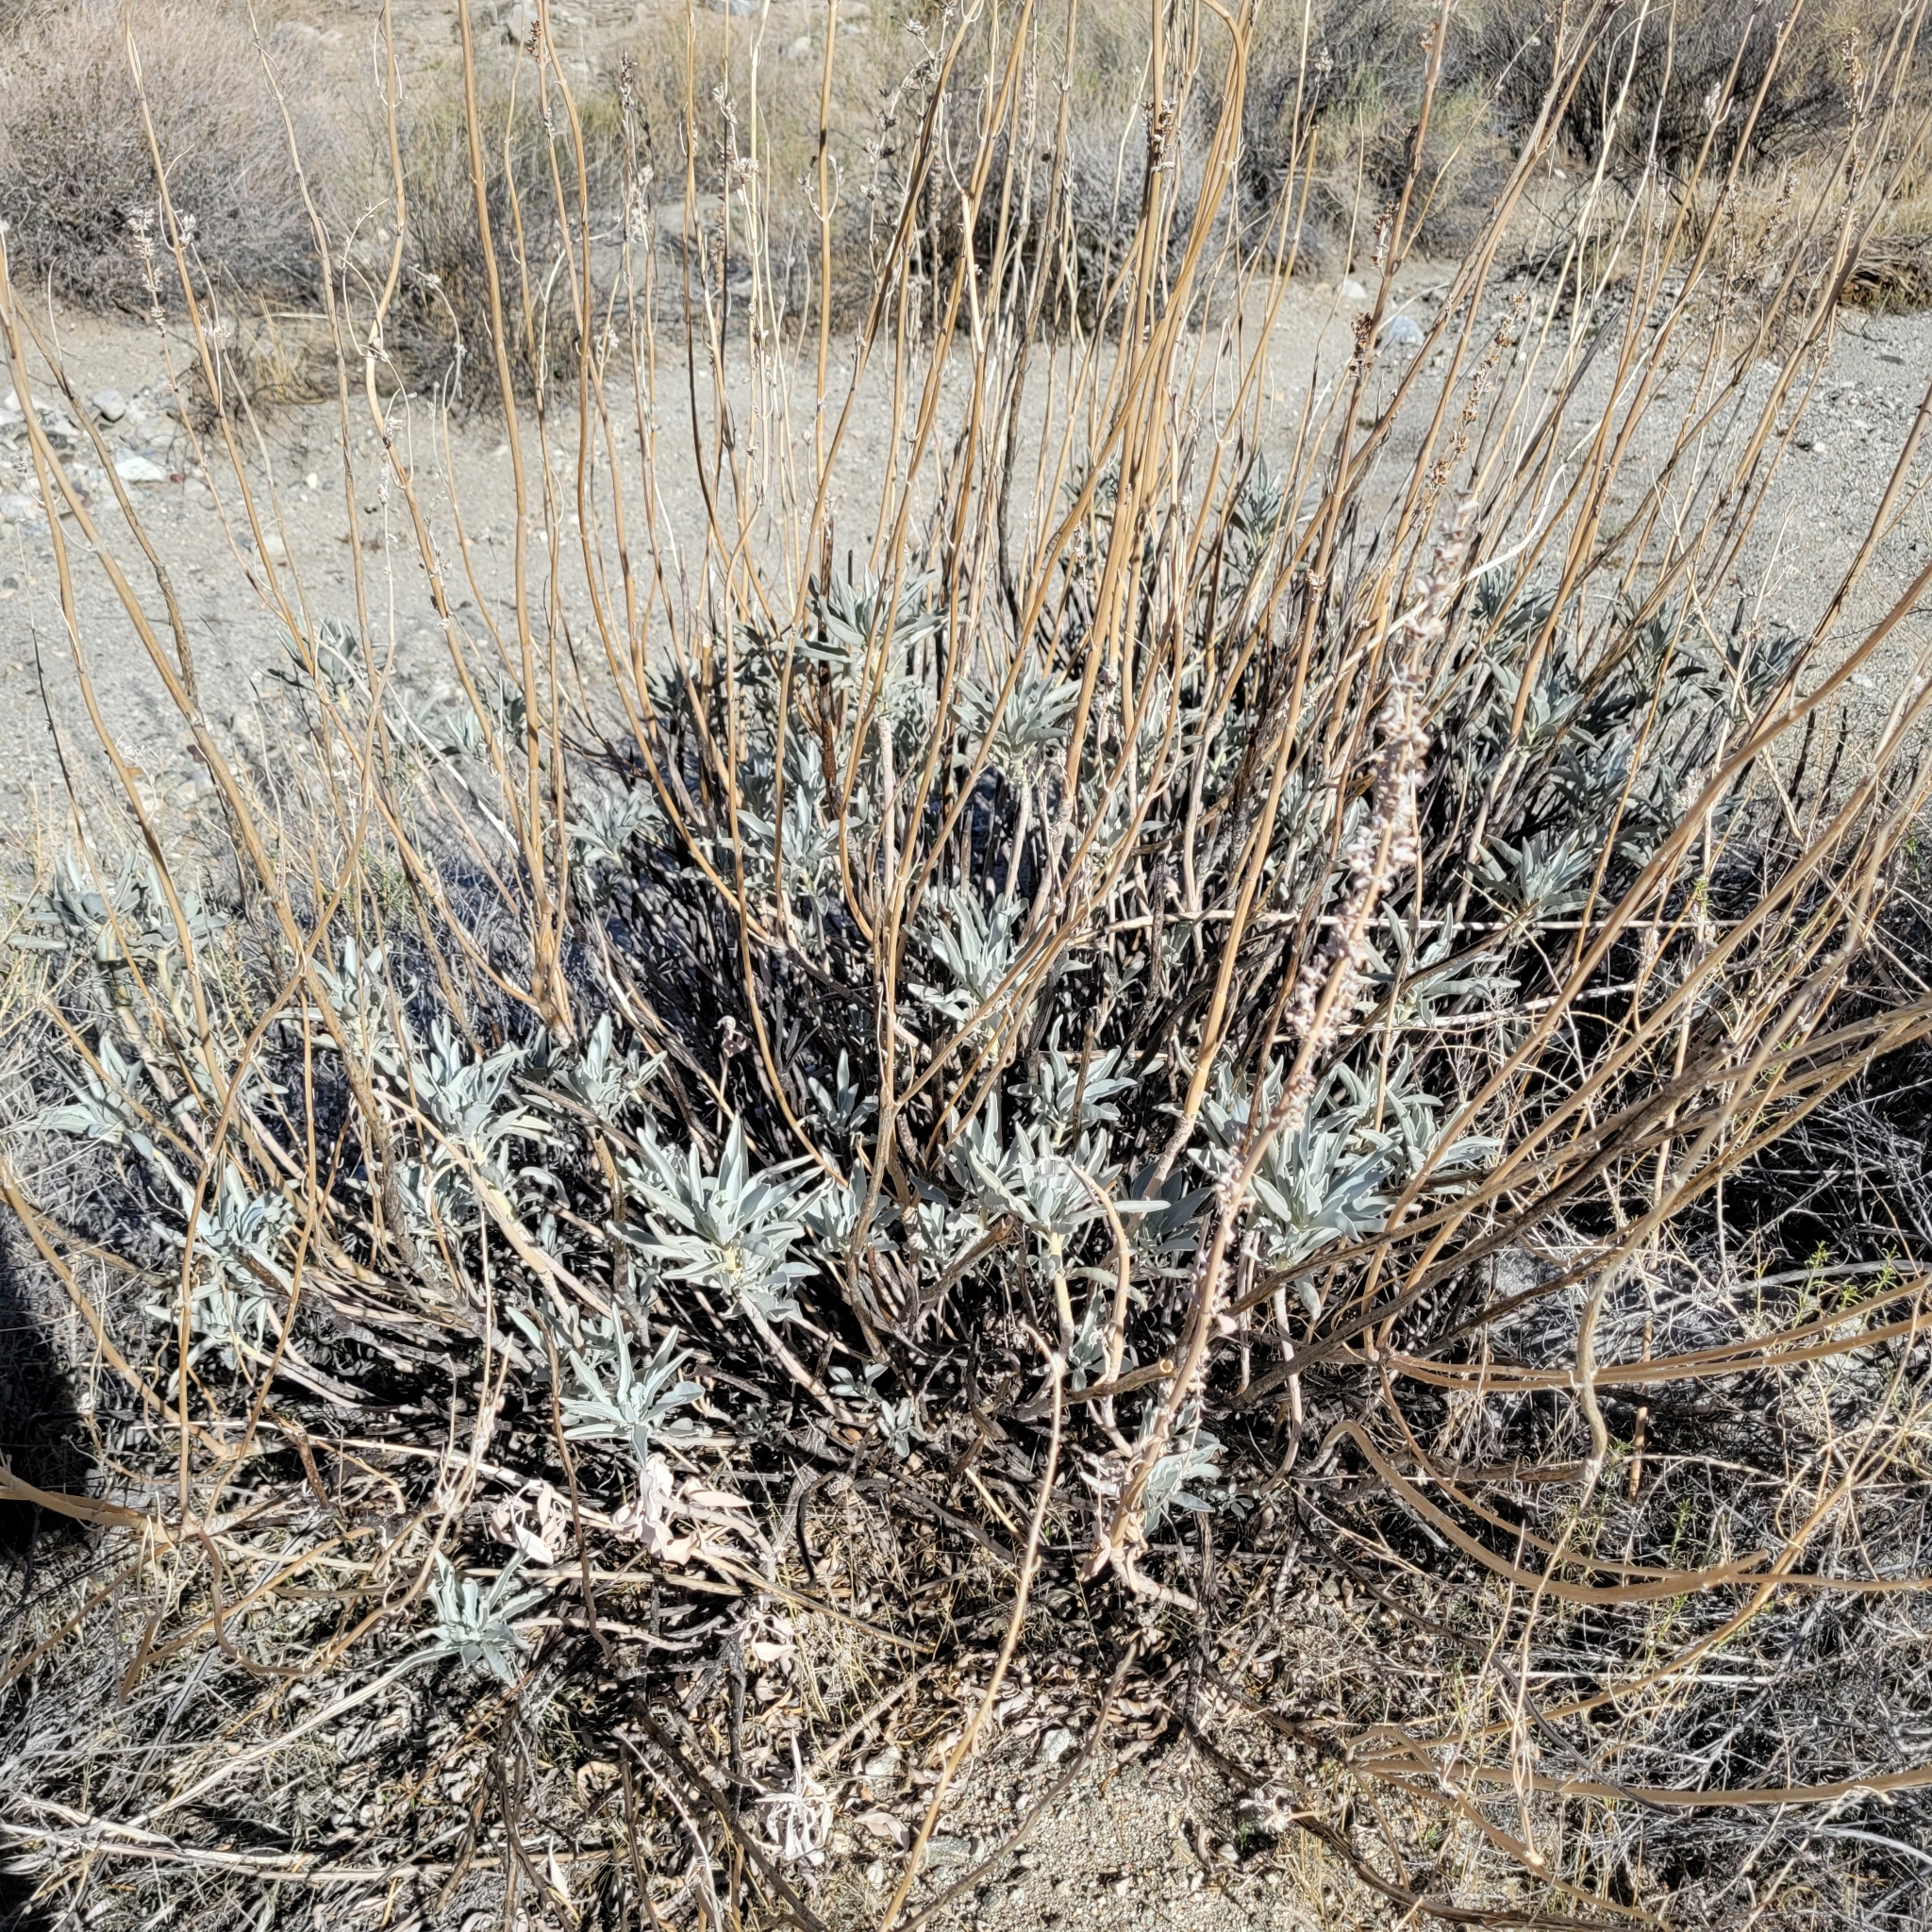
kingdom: Plantae
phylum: Tracheophyta
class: Magnoliopsida
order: Lamiales
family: Lamiaceae
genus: Salvia
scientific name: Salvia apiana
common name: White sage
